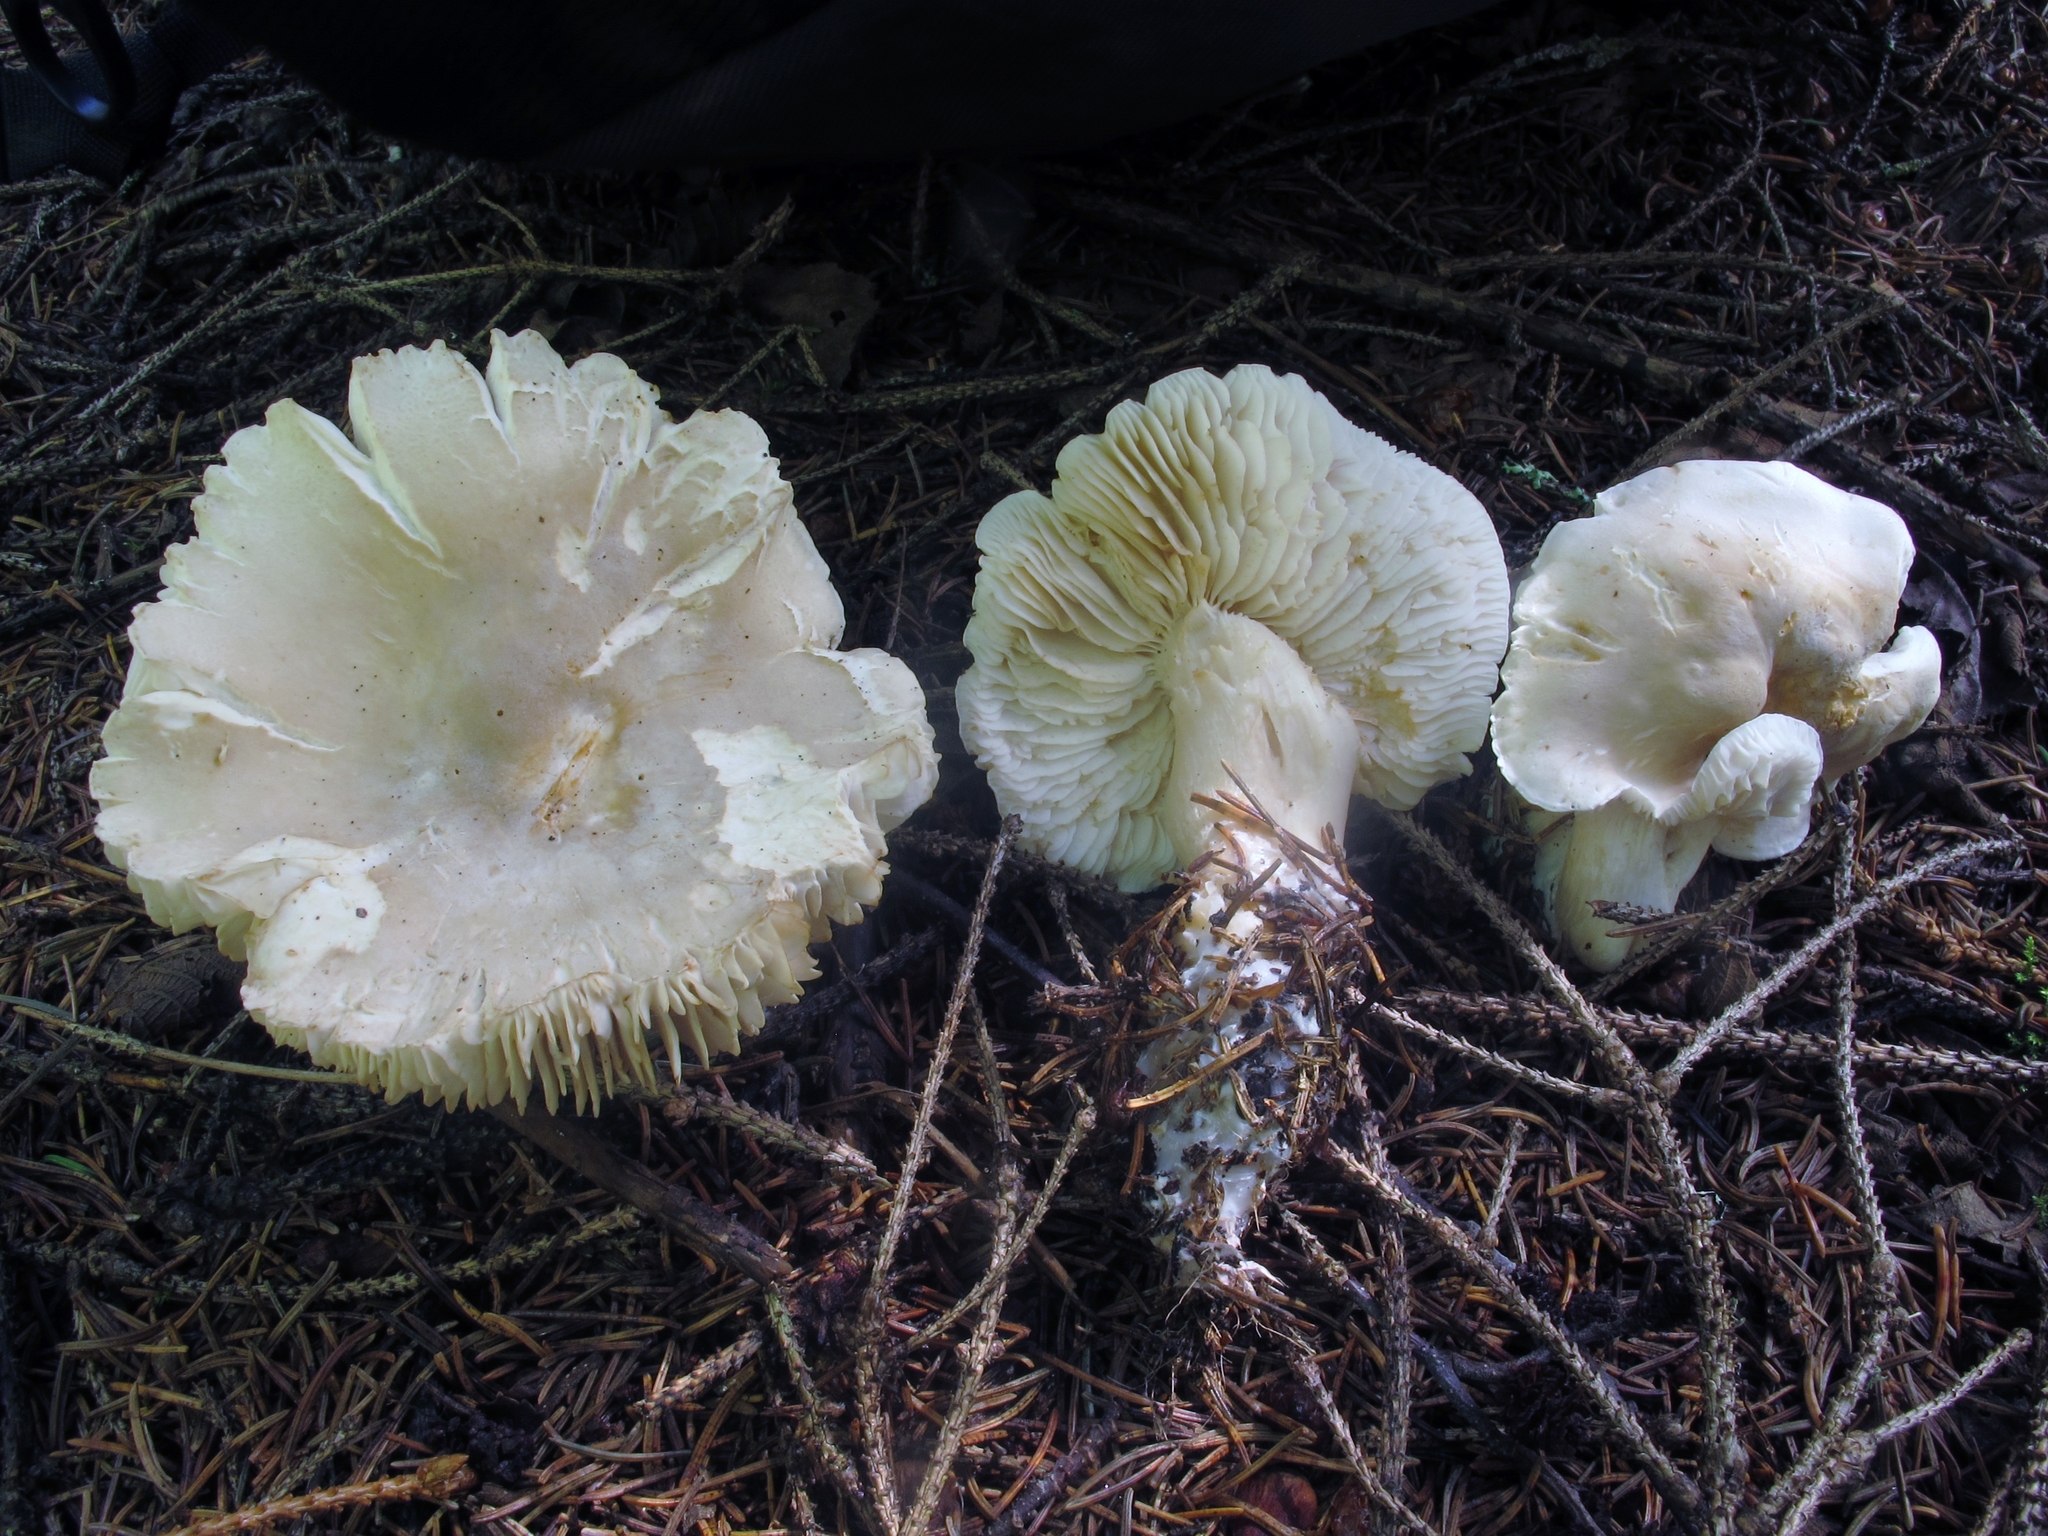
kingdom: Fungi
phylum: Basidiomycota
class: Agaricomycetes
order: Agaricales
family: Tricholomataceae
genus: Tricholoma
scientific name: Tricholoma inamoenum
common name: Gassy knight
